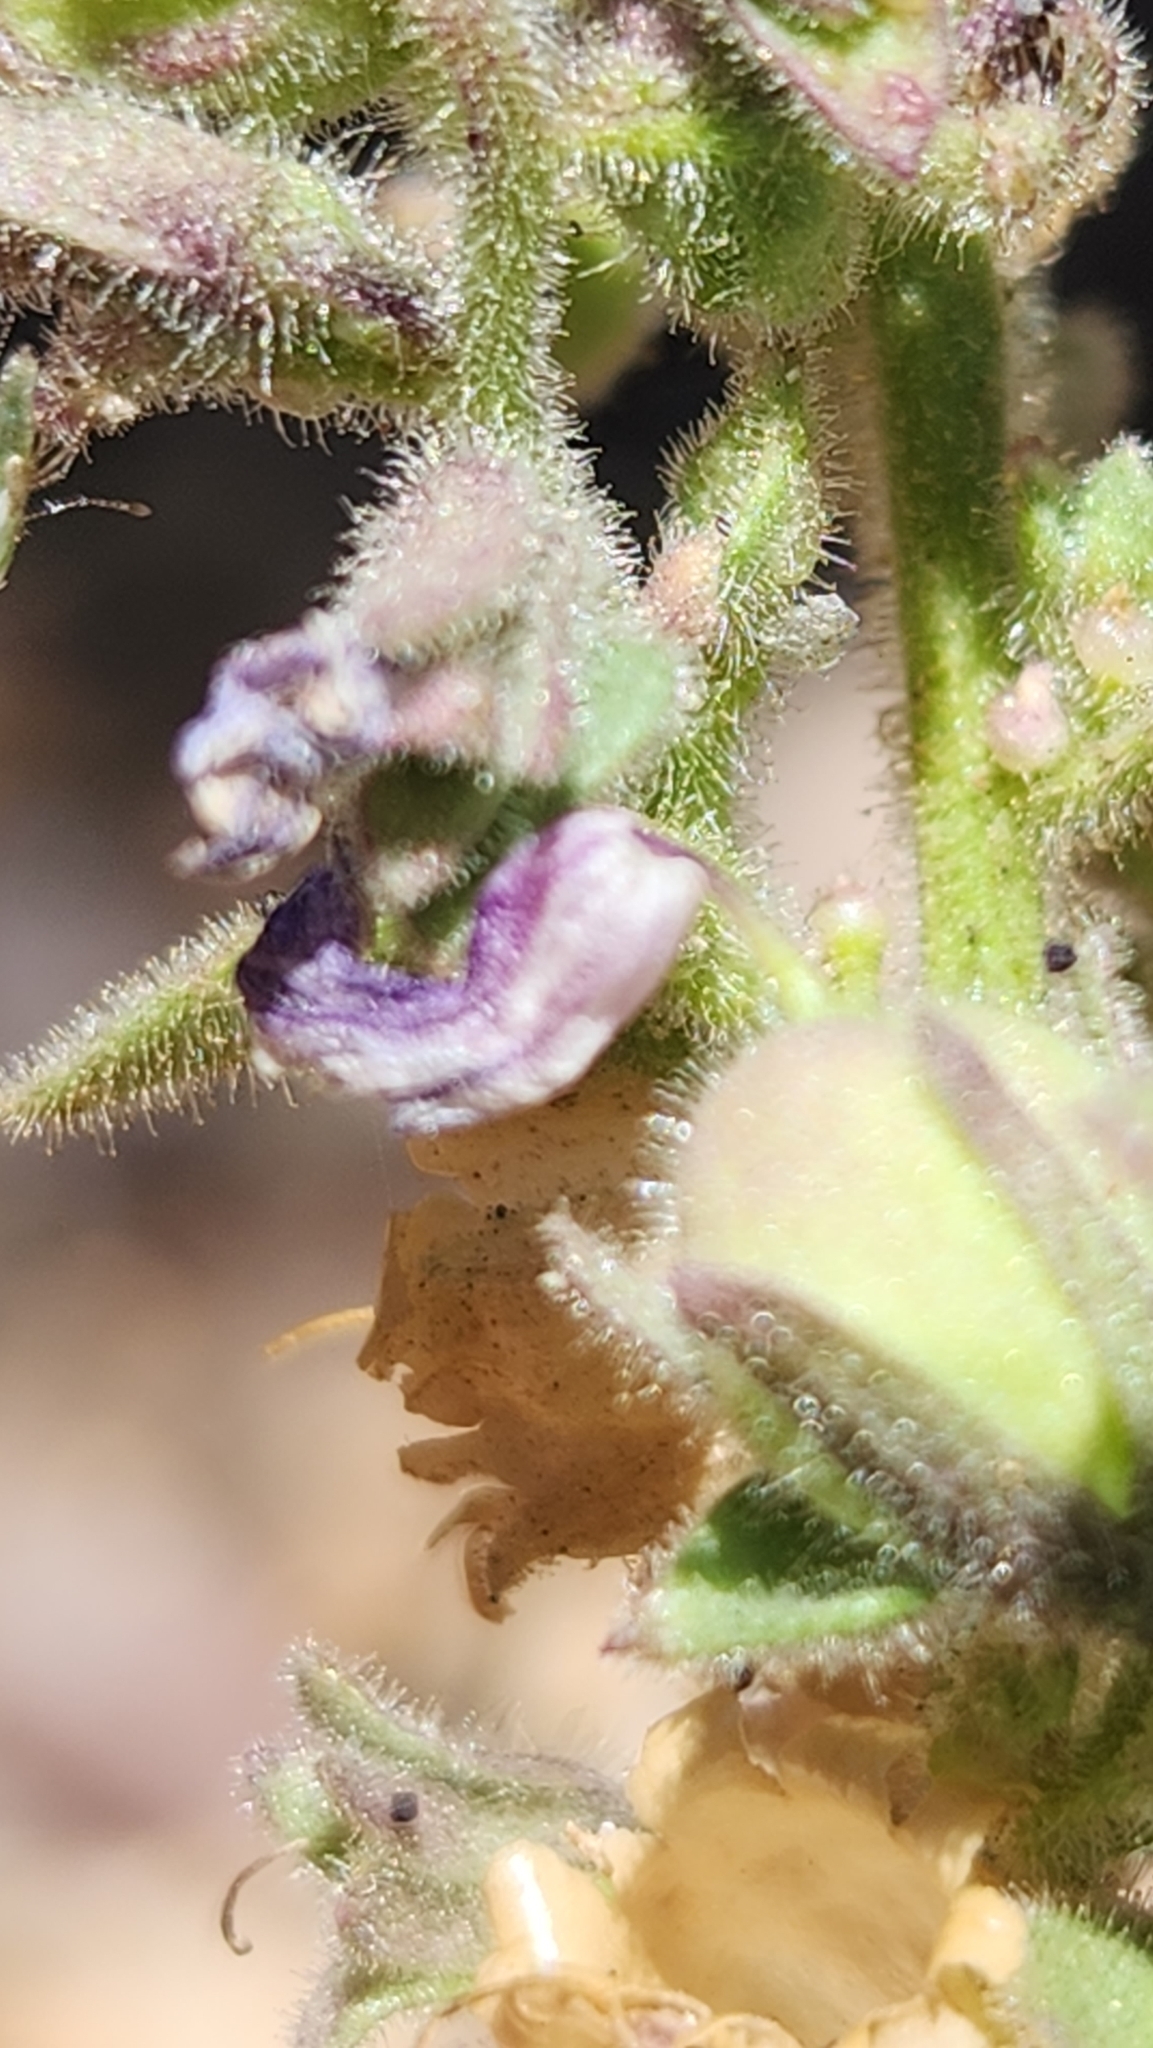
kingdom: Plantae
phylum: Tracheophyta
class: Magnoliopsida
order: Lamiales
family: Plantaginaceae
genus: Pseudorontium
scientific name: Pseudorontium cyathiferum
